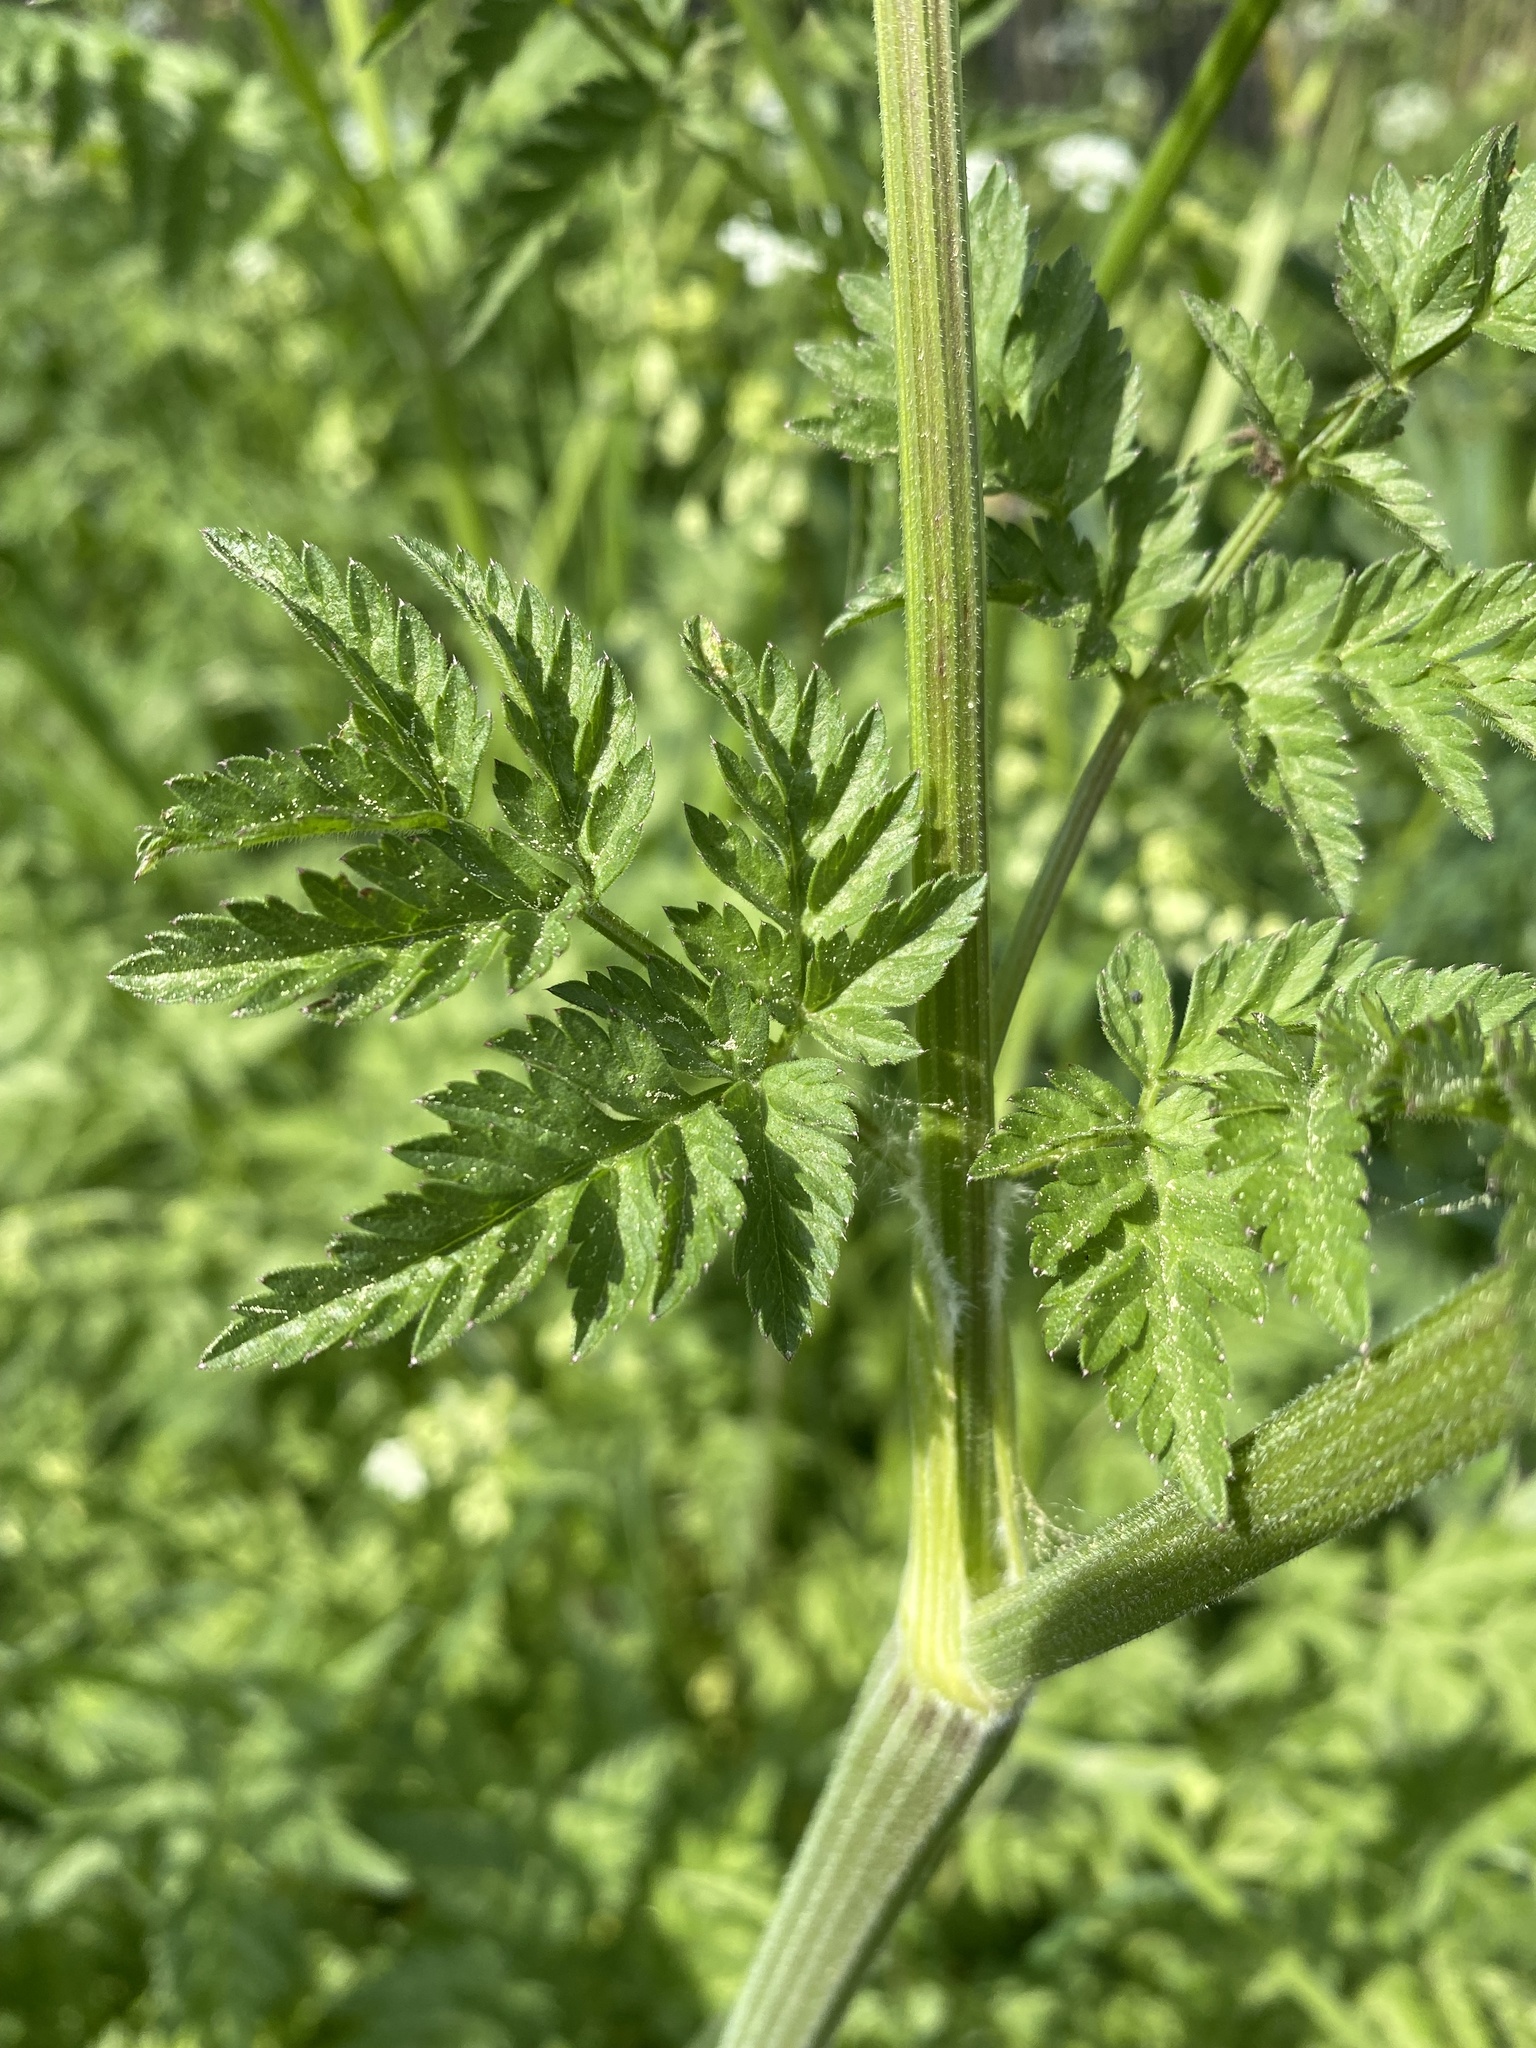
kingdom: Plantae
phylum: Tracheophyta
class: Magnoliopsida
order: Apiales
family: Apiaceae
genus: Anthriscus
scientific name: Anthriscus sylvestris
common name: Cow parsley
